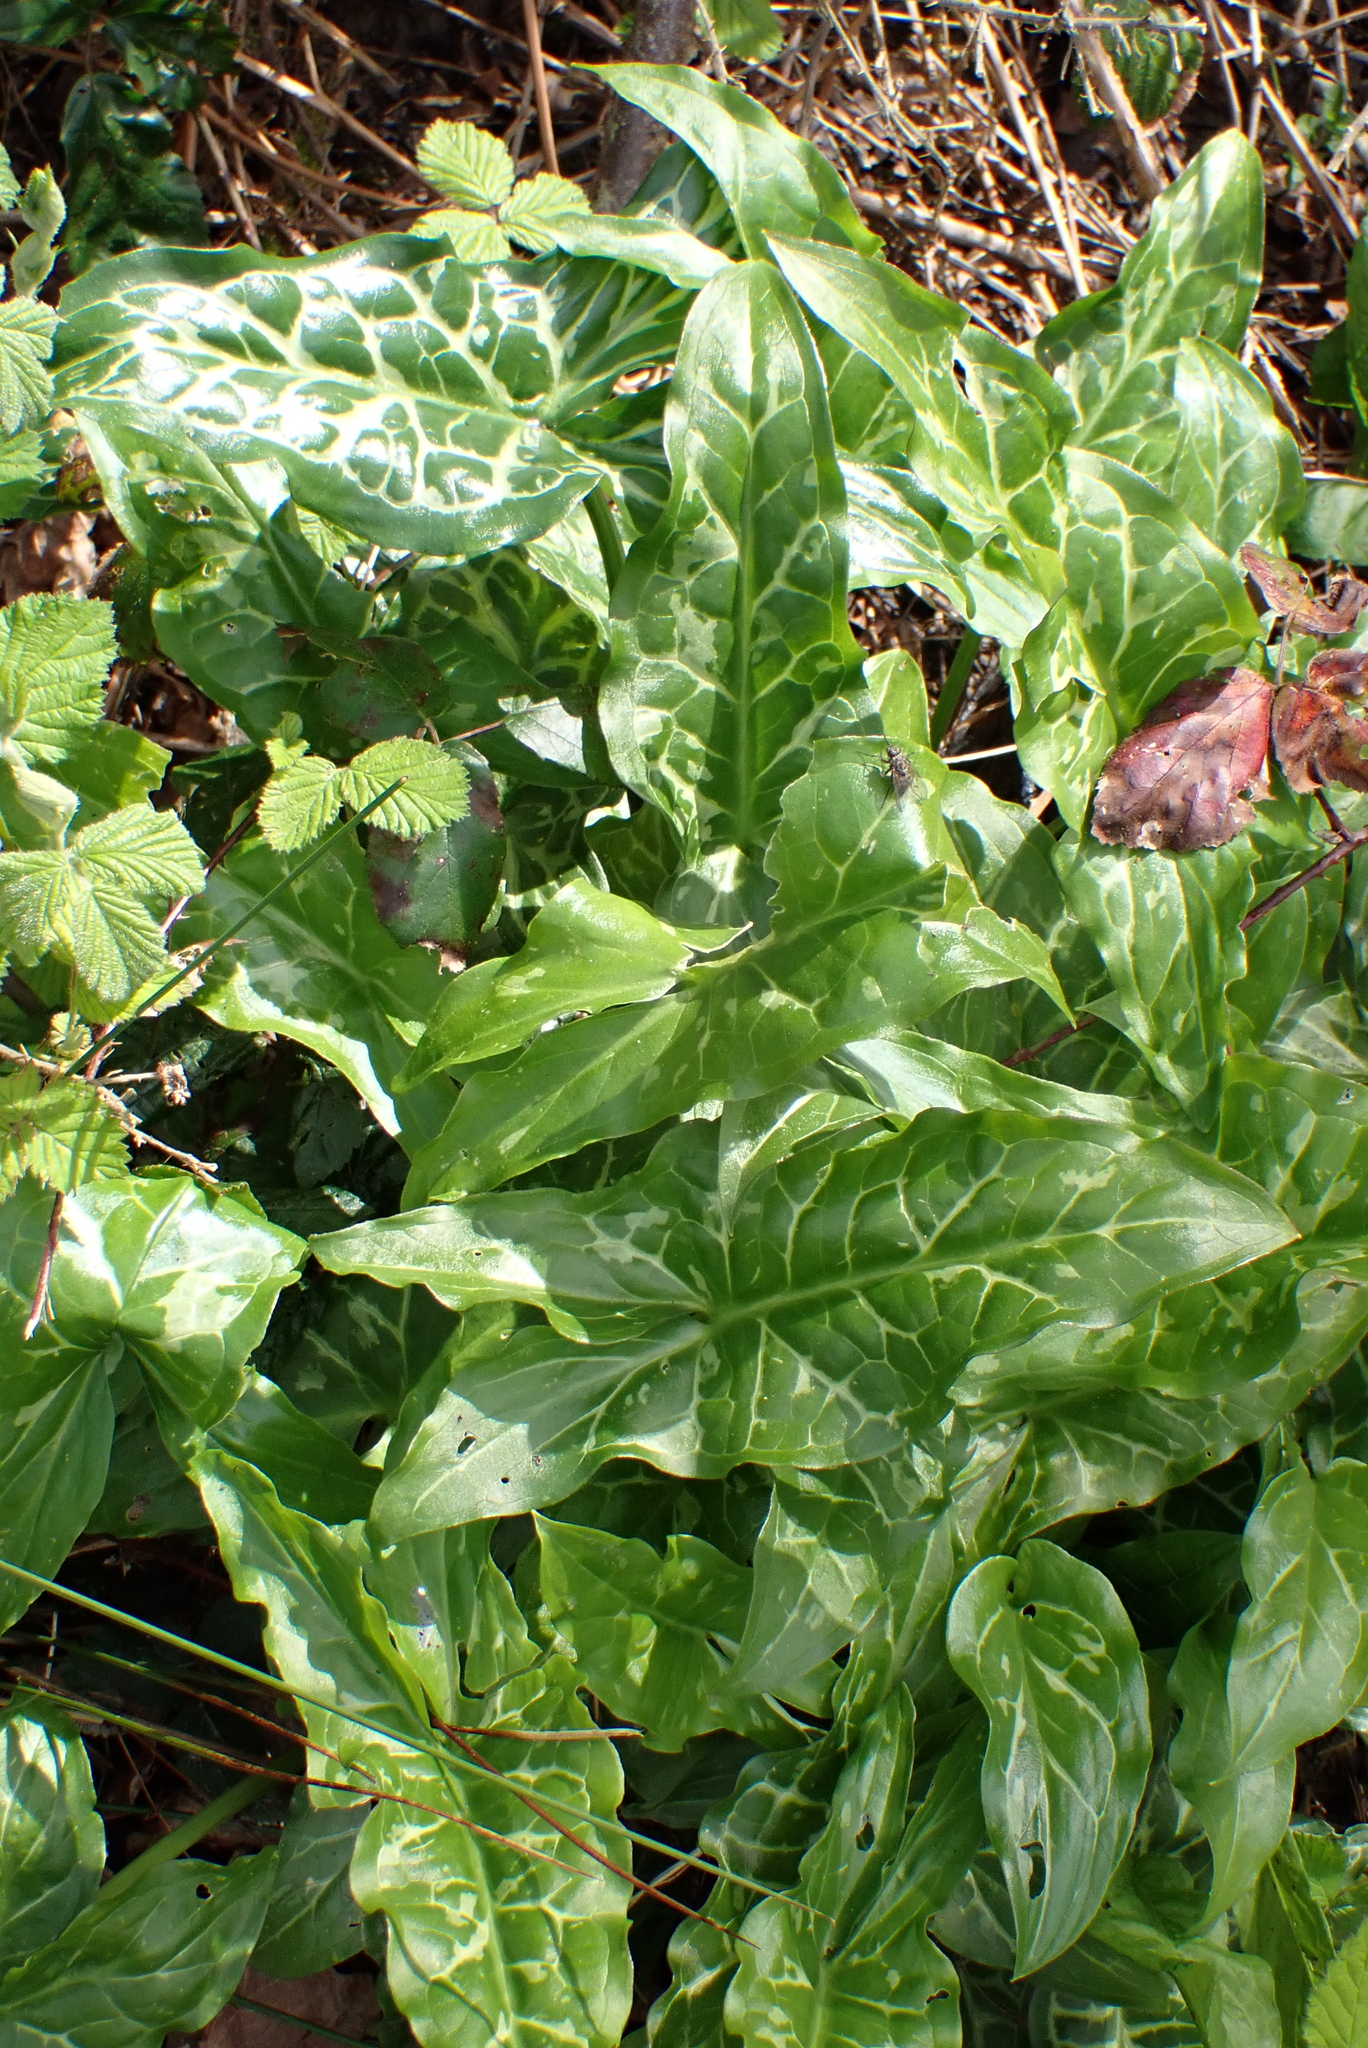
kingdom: Plantae
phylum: Tracheophyta
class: Liliopsida
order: Alismatales
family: Araceae
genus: Arum
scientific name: Arum italicum
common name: Italian lords-and-ladies
